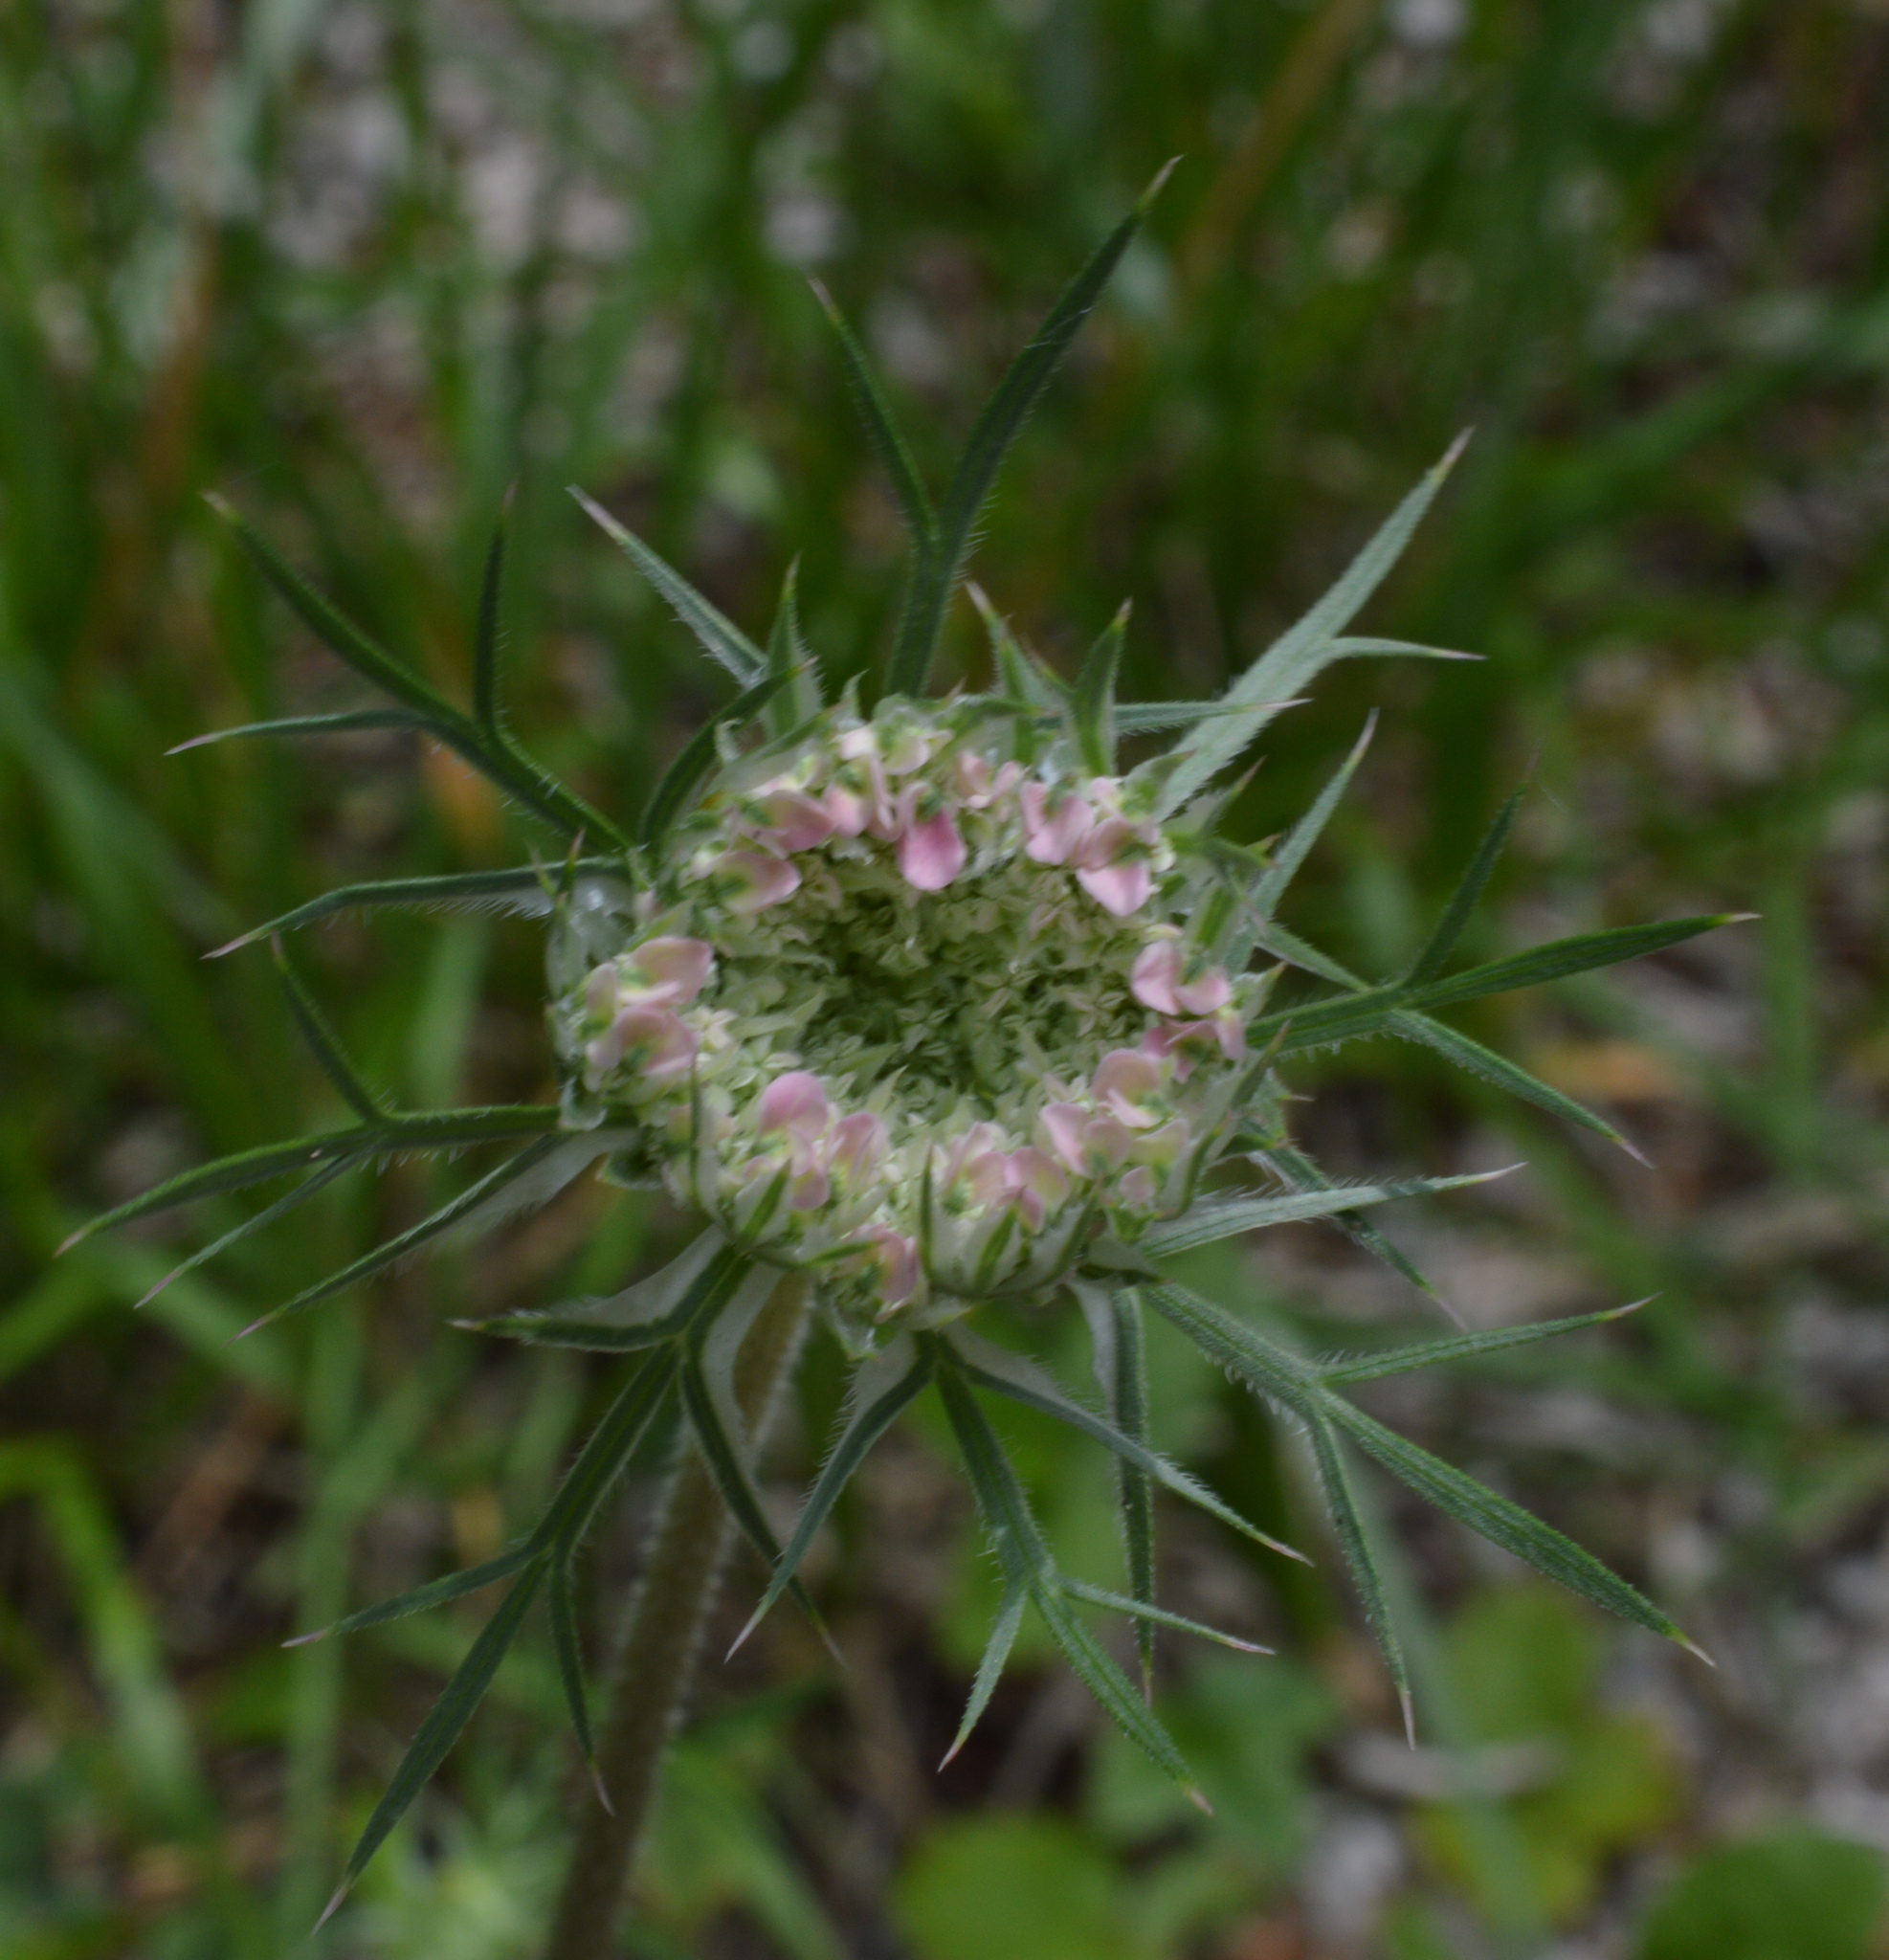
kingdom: Plantae
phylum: Tracheophyta
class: Magnoliopsida
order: Apiales
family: Apiaceae
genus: Daucus
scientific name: Daucus carota
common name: Wild carrot
